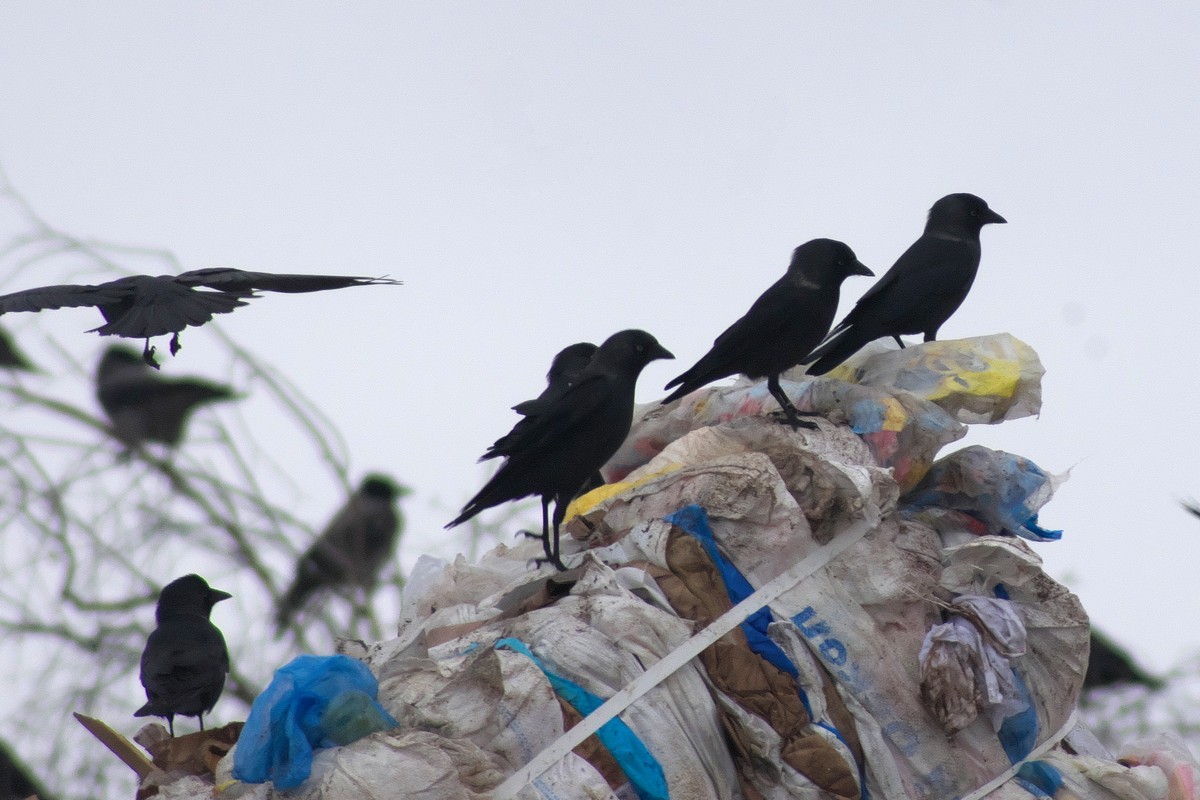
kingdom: Animalia
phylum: Chordata
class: Aves
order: Passeriformes
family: Corvidae
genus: Coloeus
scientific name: Coloeus monedula
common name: Western jackdaw
